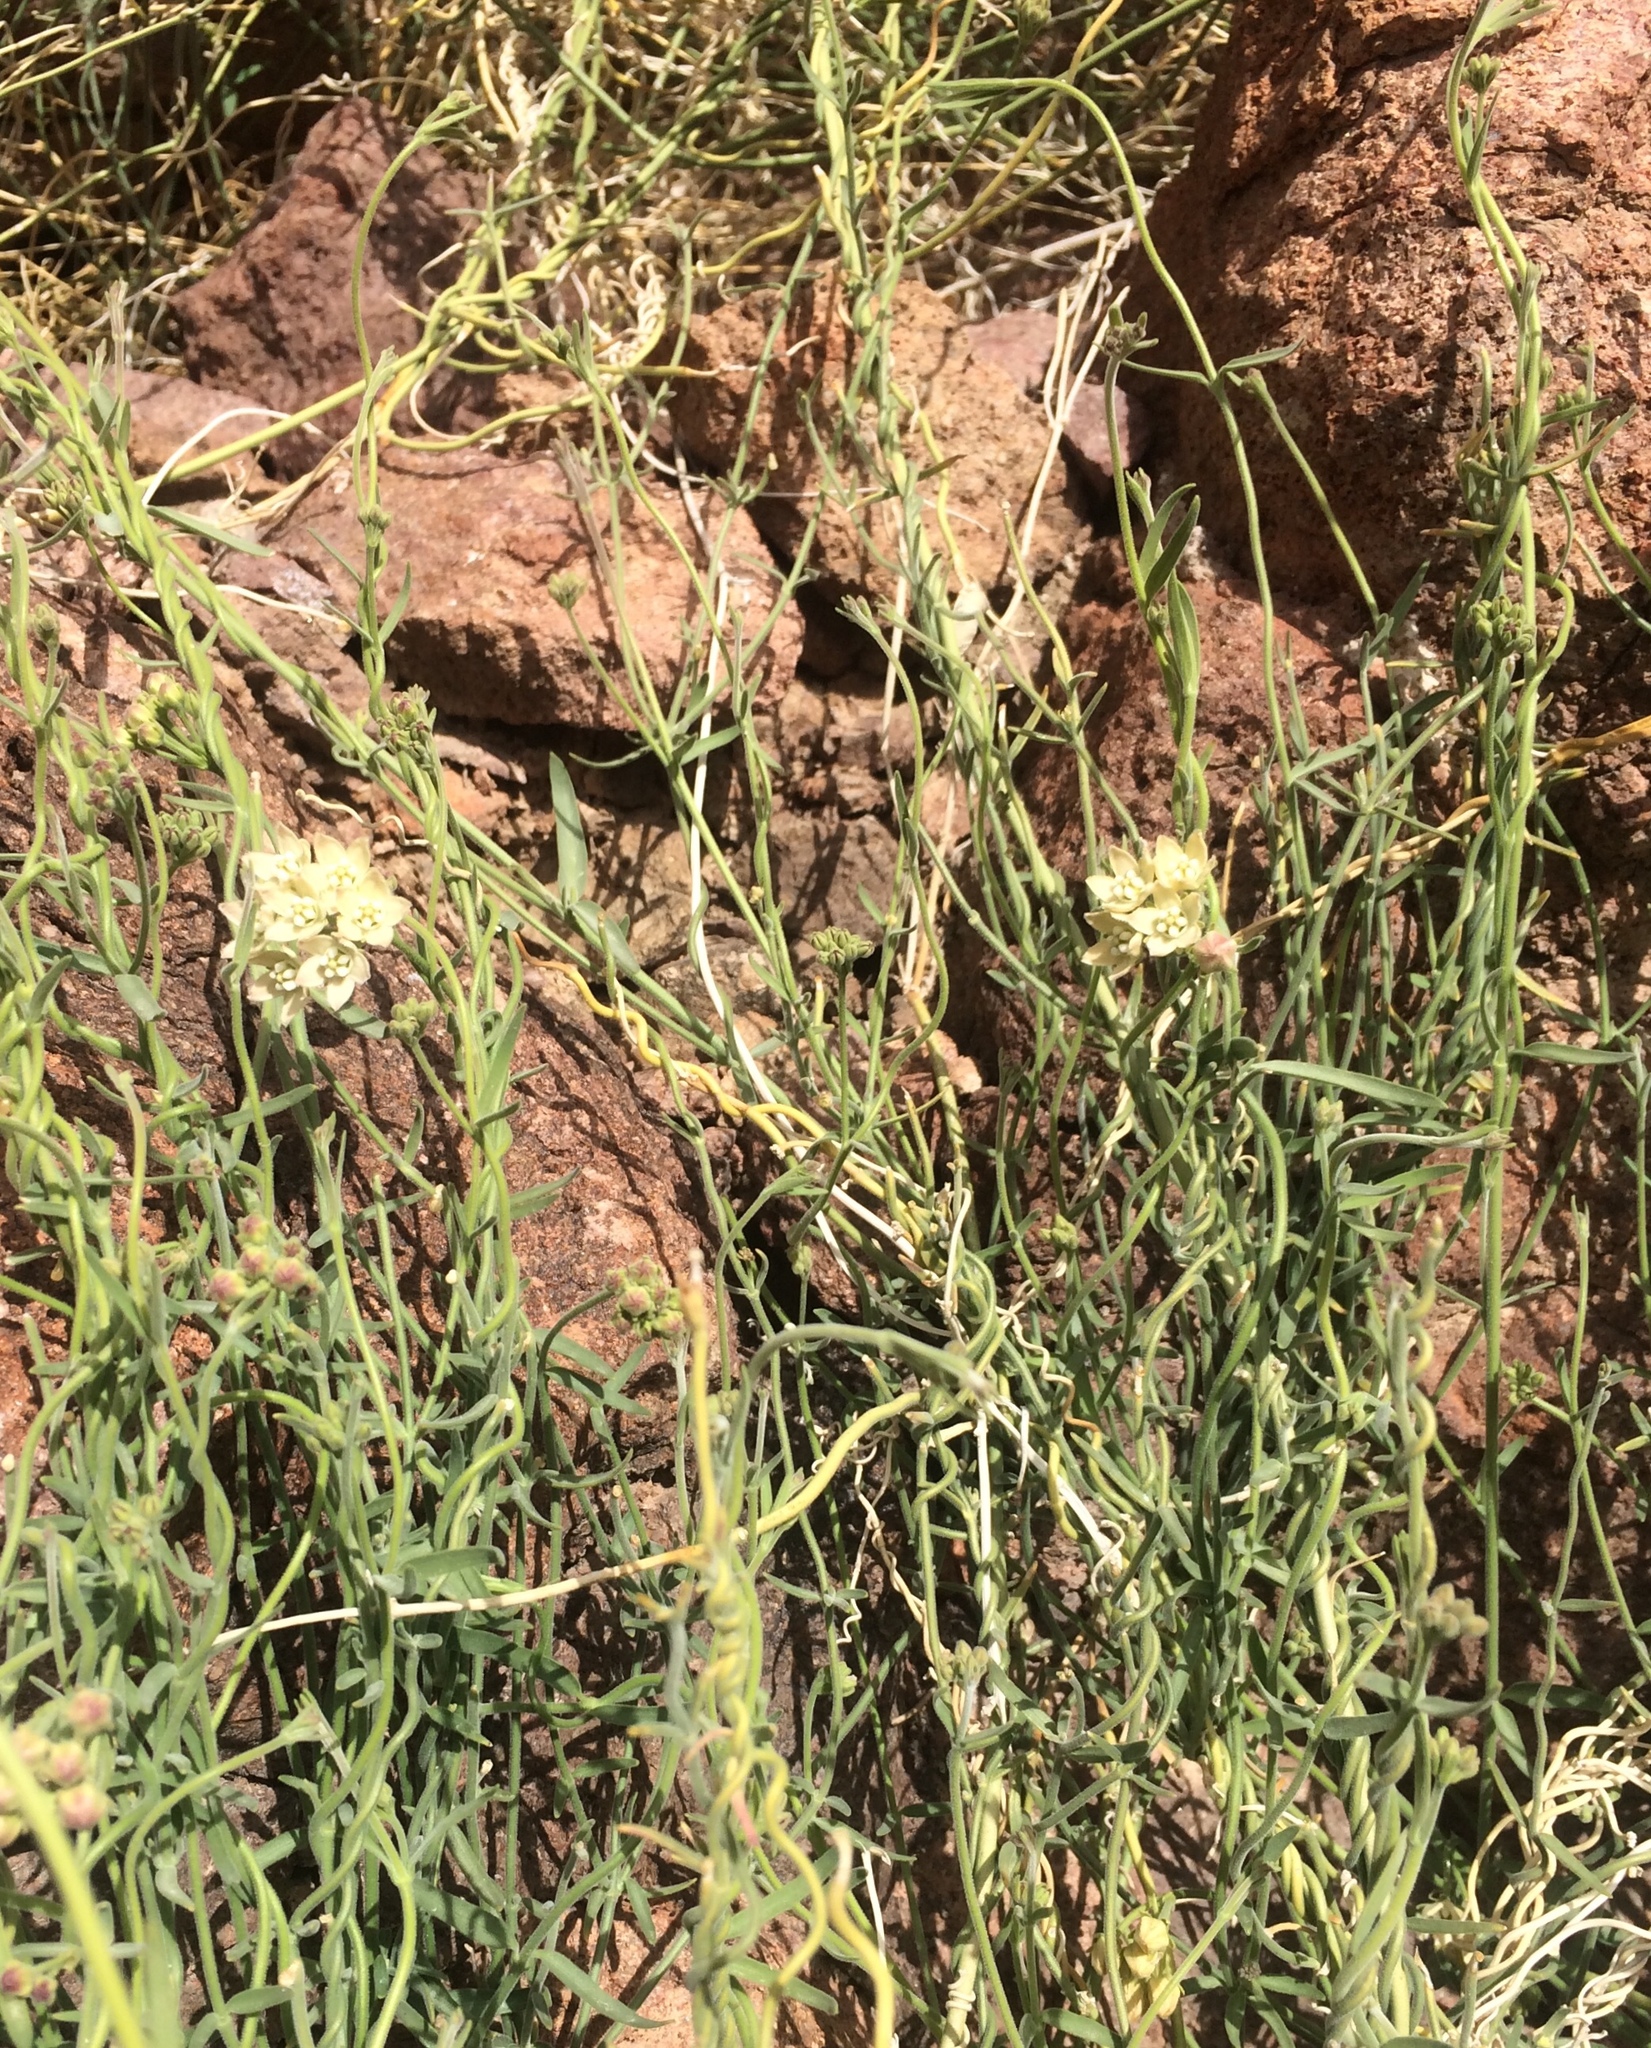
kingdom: Plantae
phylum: Tracheophyta
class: Magnoliopsida
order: Gentianales
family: Apocynaceae
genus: Funastrum
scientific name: Funastrum hirtellum
